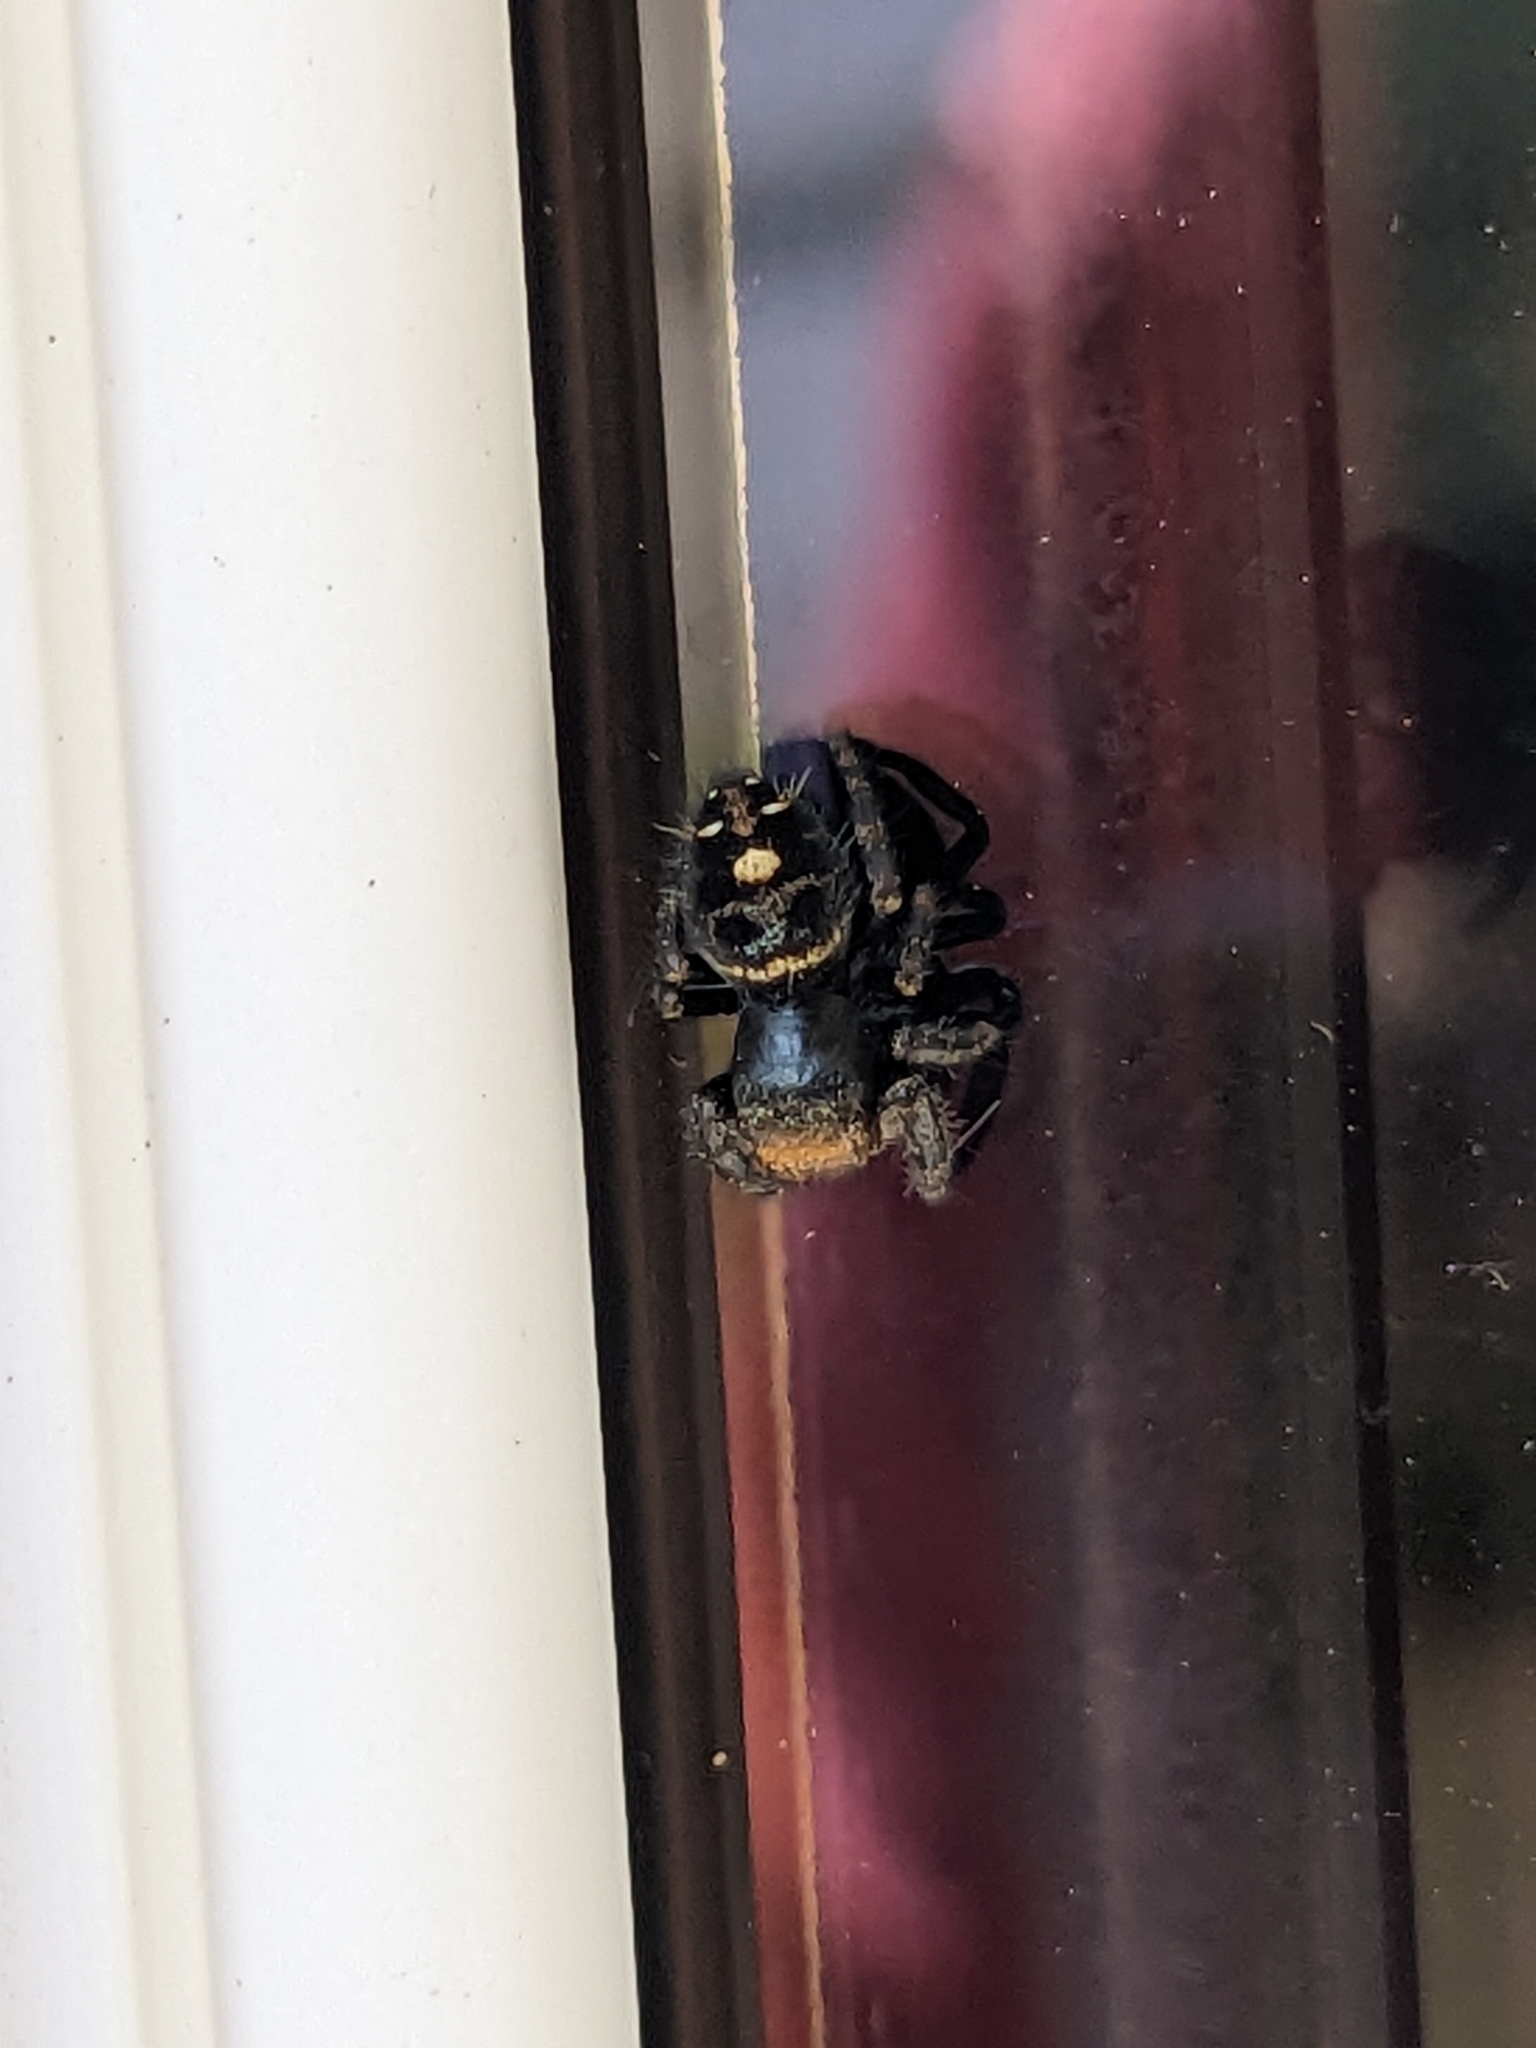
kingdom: Animalia
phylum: Arthropoda
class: Arachnida
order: Araneae
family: Salticidae
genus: Phidippus
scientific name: Phidippus audax
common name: Bold jumper
